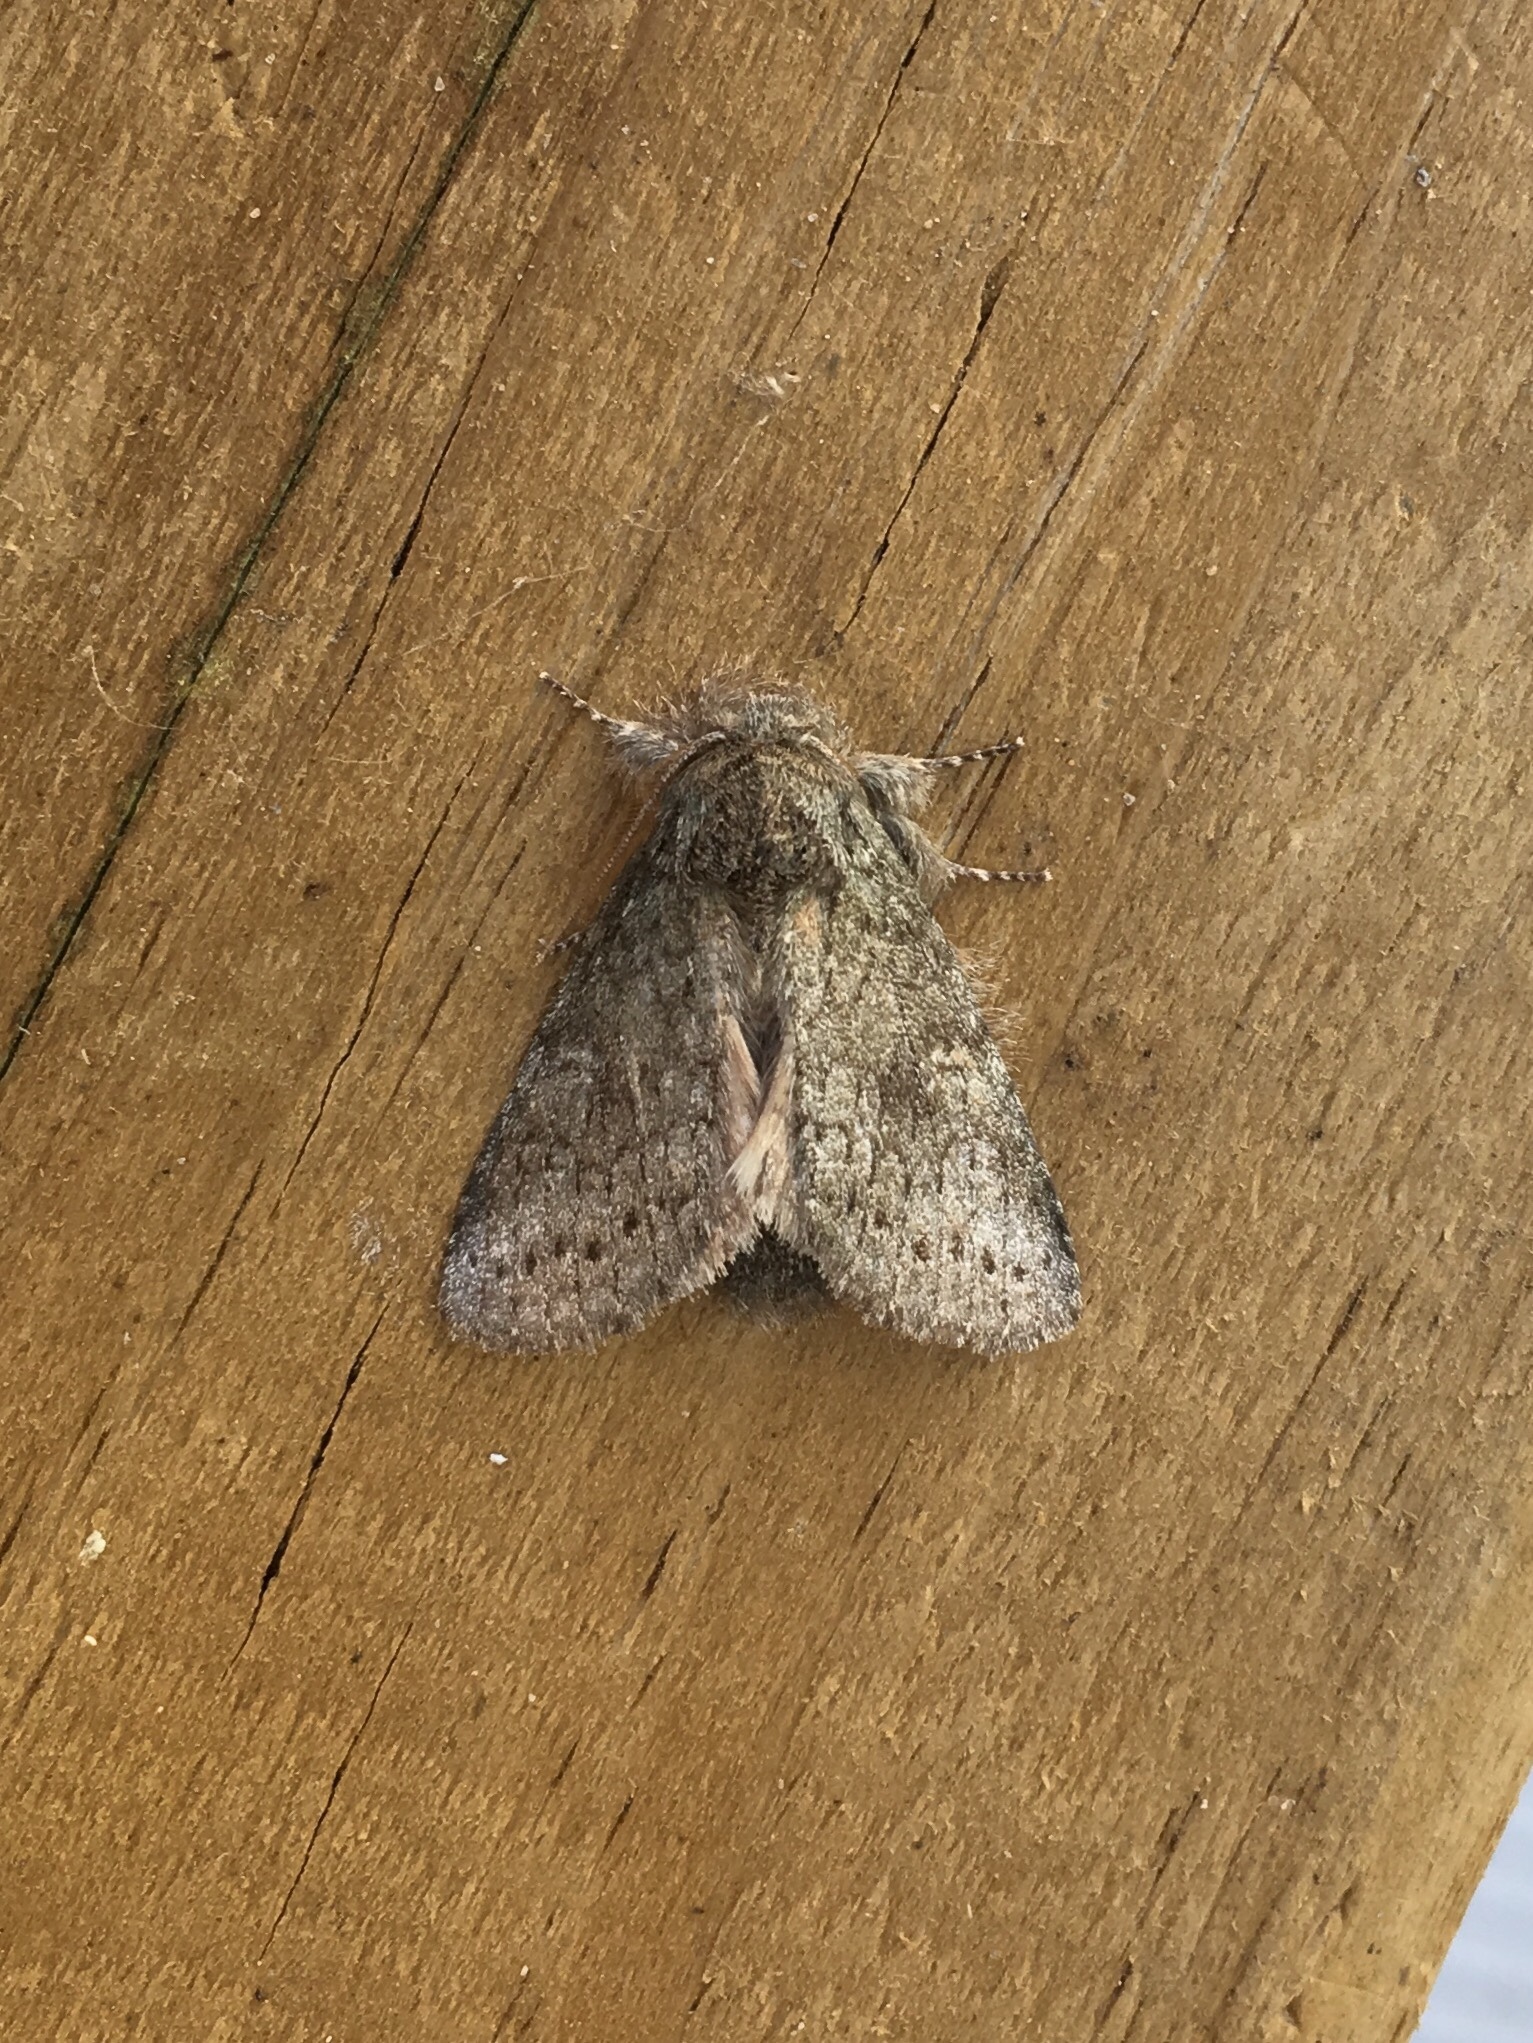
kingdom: Animalia
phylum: Arthropoda
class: Insecta
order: Lepidoptera
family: Notodontidae
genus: Disphragis
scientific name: Disphragis Cecrita guttivitta
